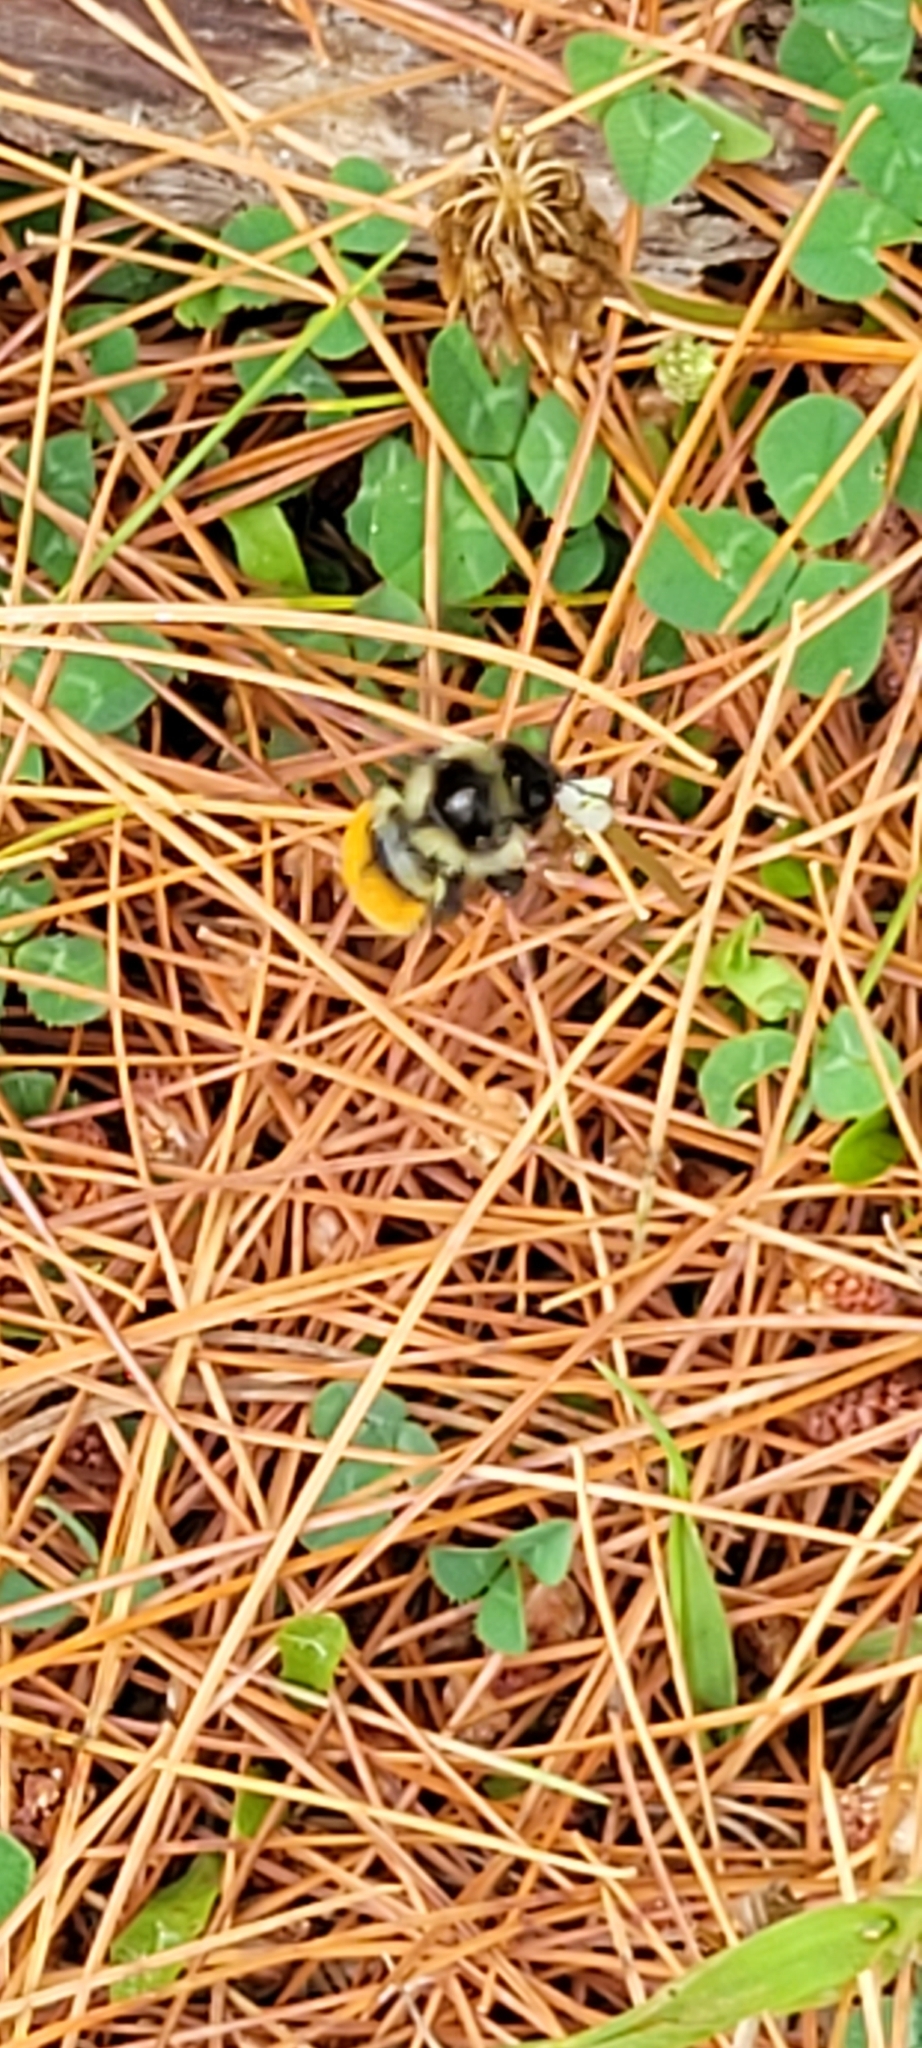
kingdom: Animalia
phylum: Arthropoda
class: Insecta
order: Hymenoptera
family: Apidae
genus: Bombus
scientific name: Bombus ternarius
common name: Tri-colored bumble bee
